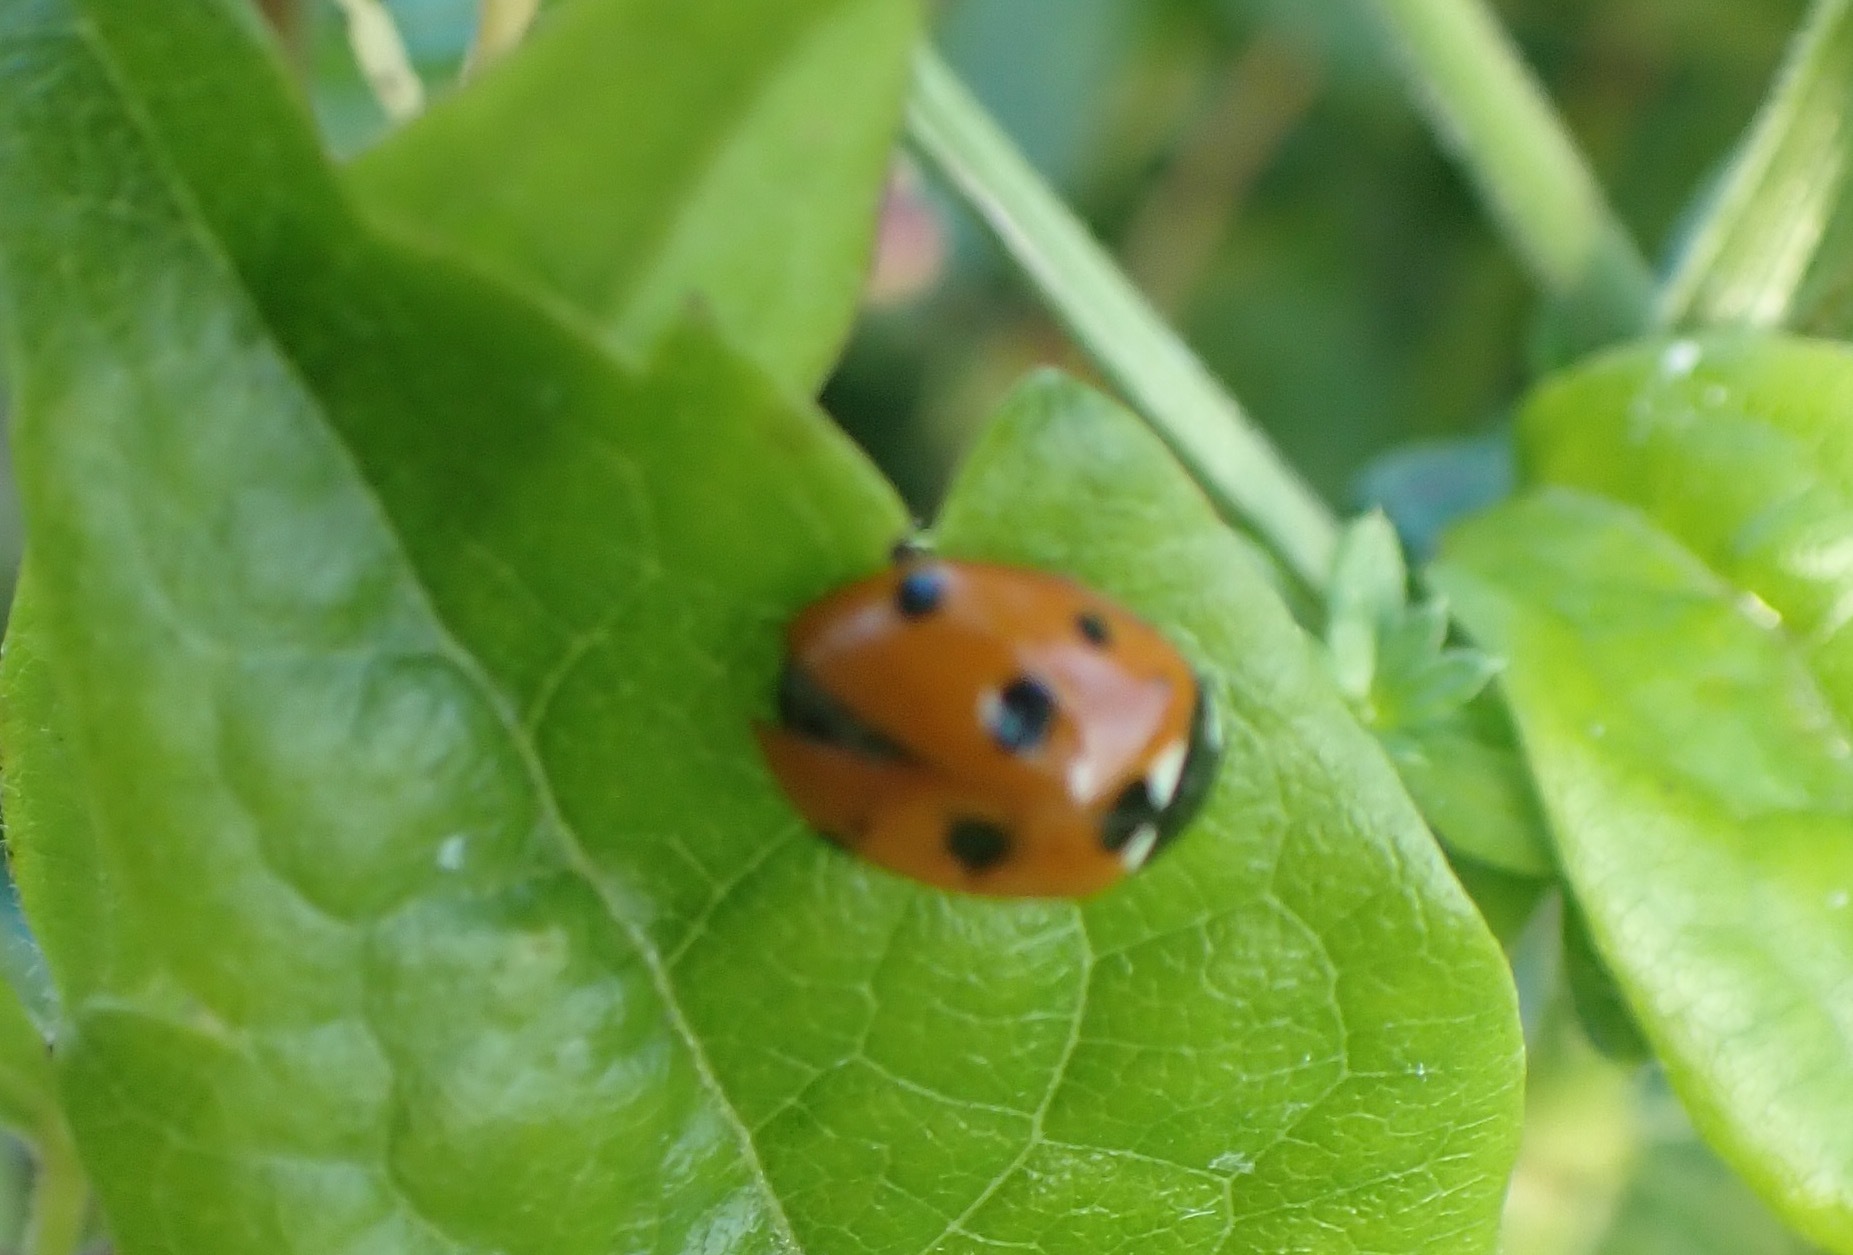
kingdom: Animalia
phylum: Arthropoda
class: Insecta
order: Coleoptera
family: Coccinellidae
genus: Coccinella
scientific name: Coccinella septempunctata
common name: Sevenspotted lady beetle
